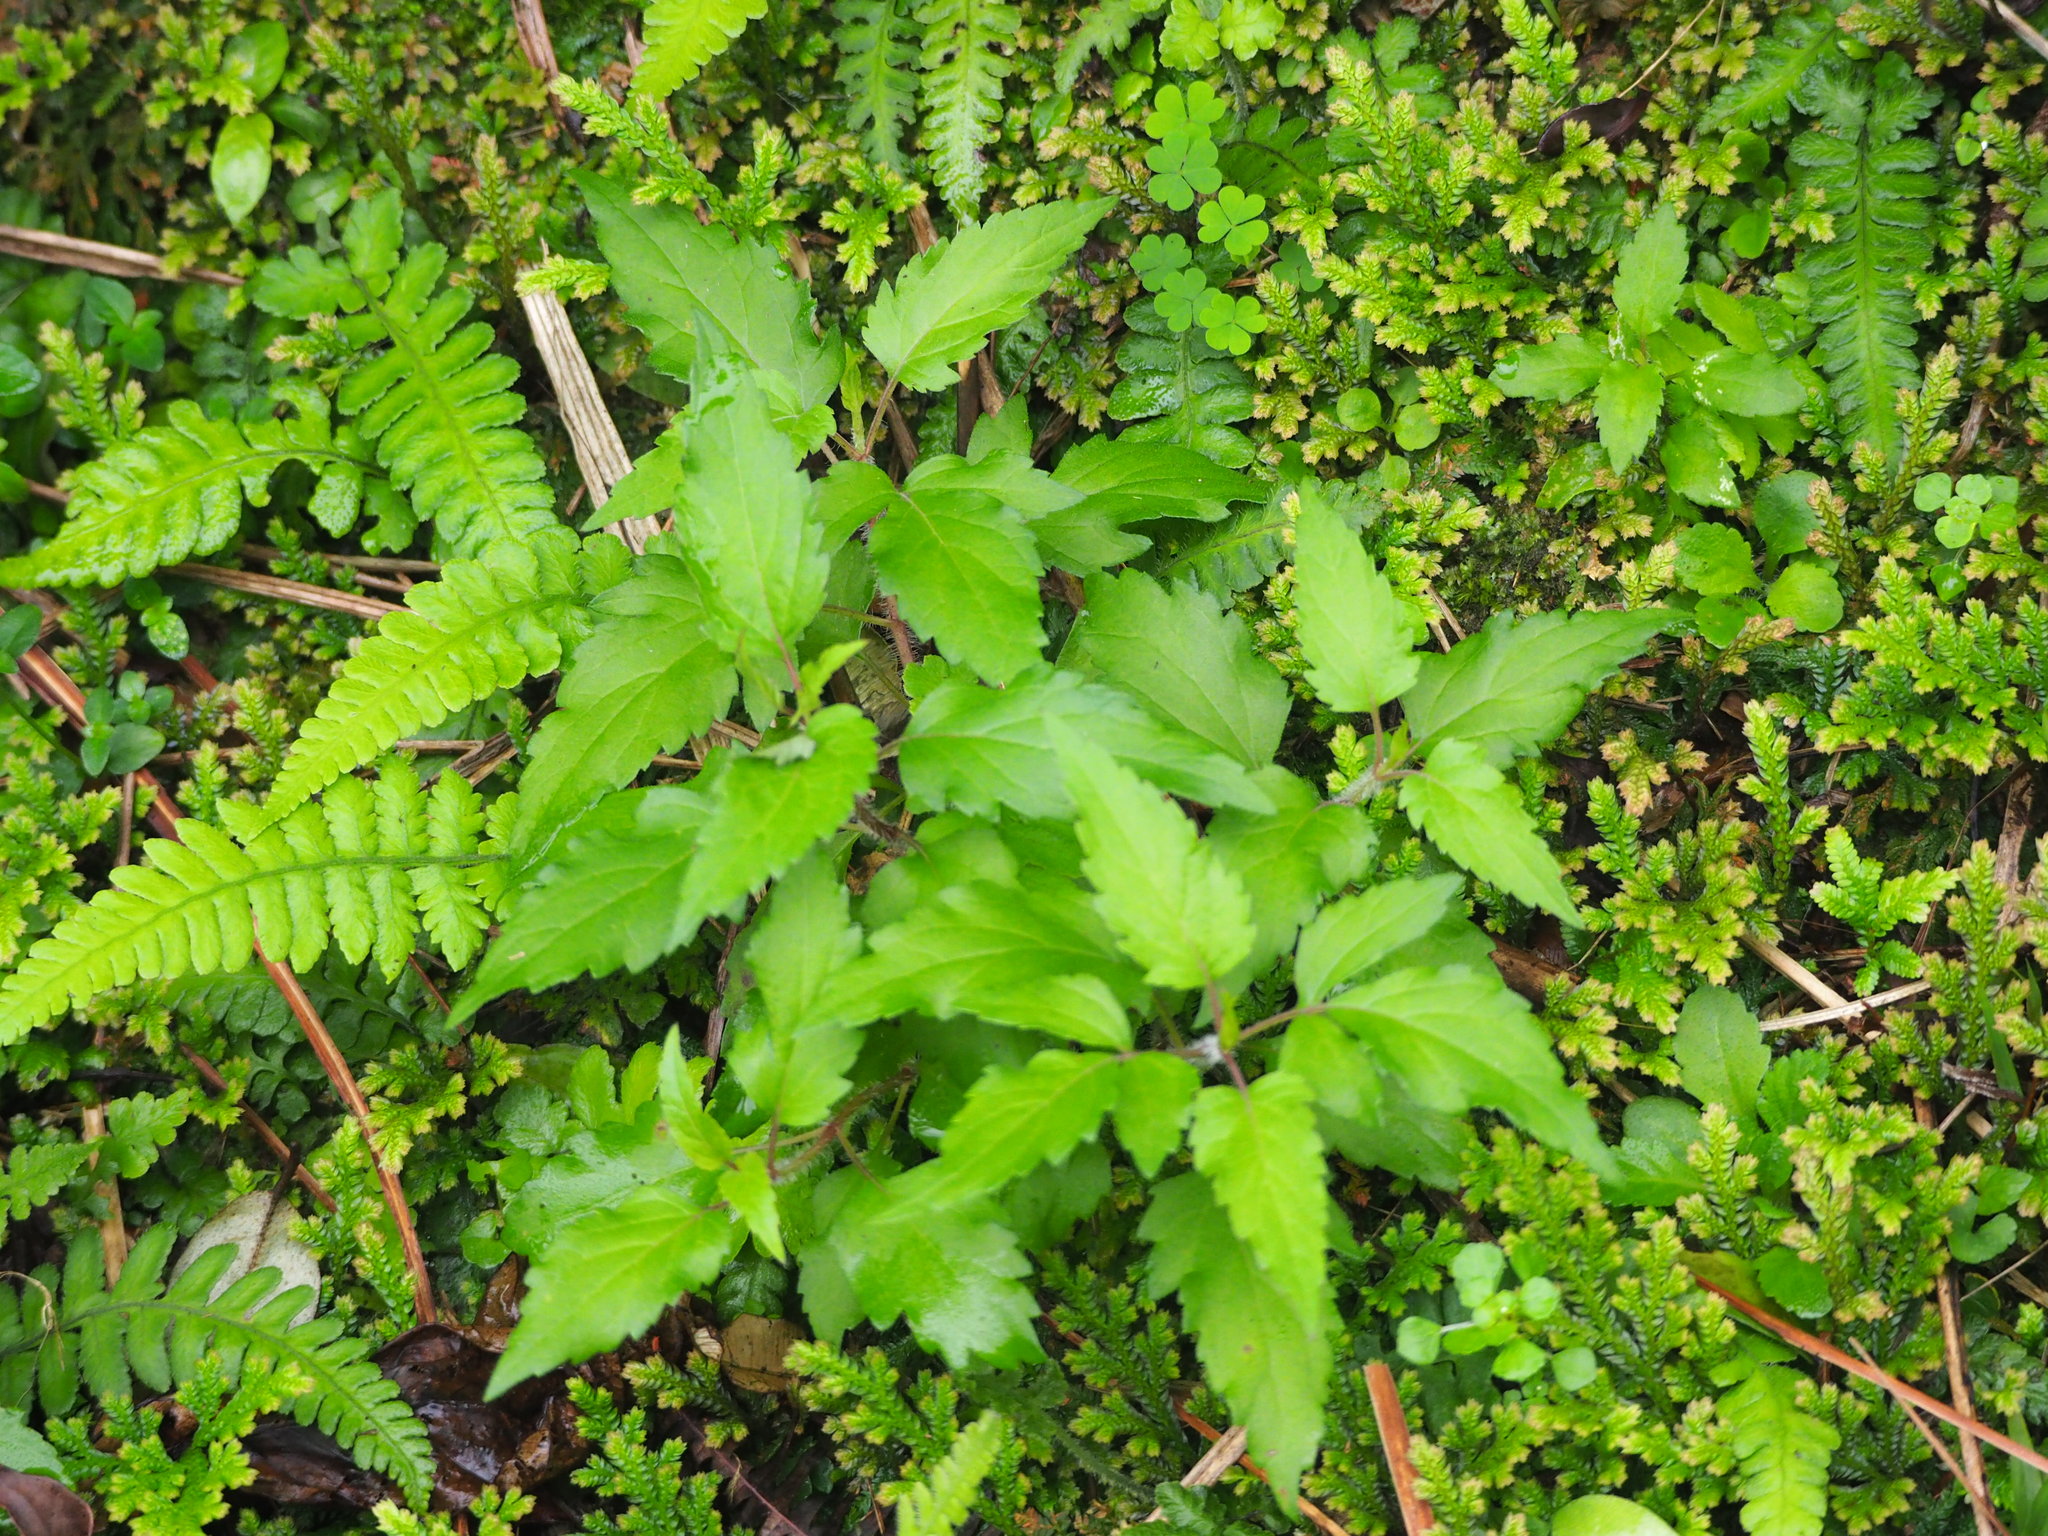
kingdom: Plantae
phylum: Tracheophyta
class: Magnoliopsida
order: Asterales
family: Asteraceae
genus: Eupatorium
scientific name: Eupatorium formosanum
